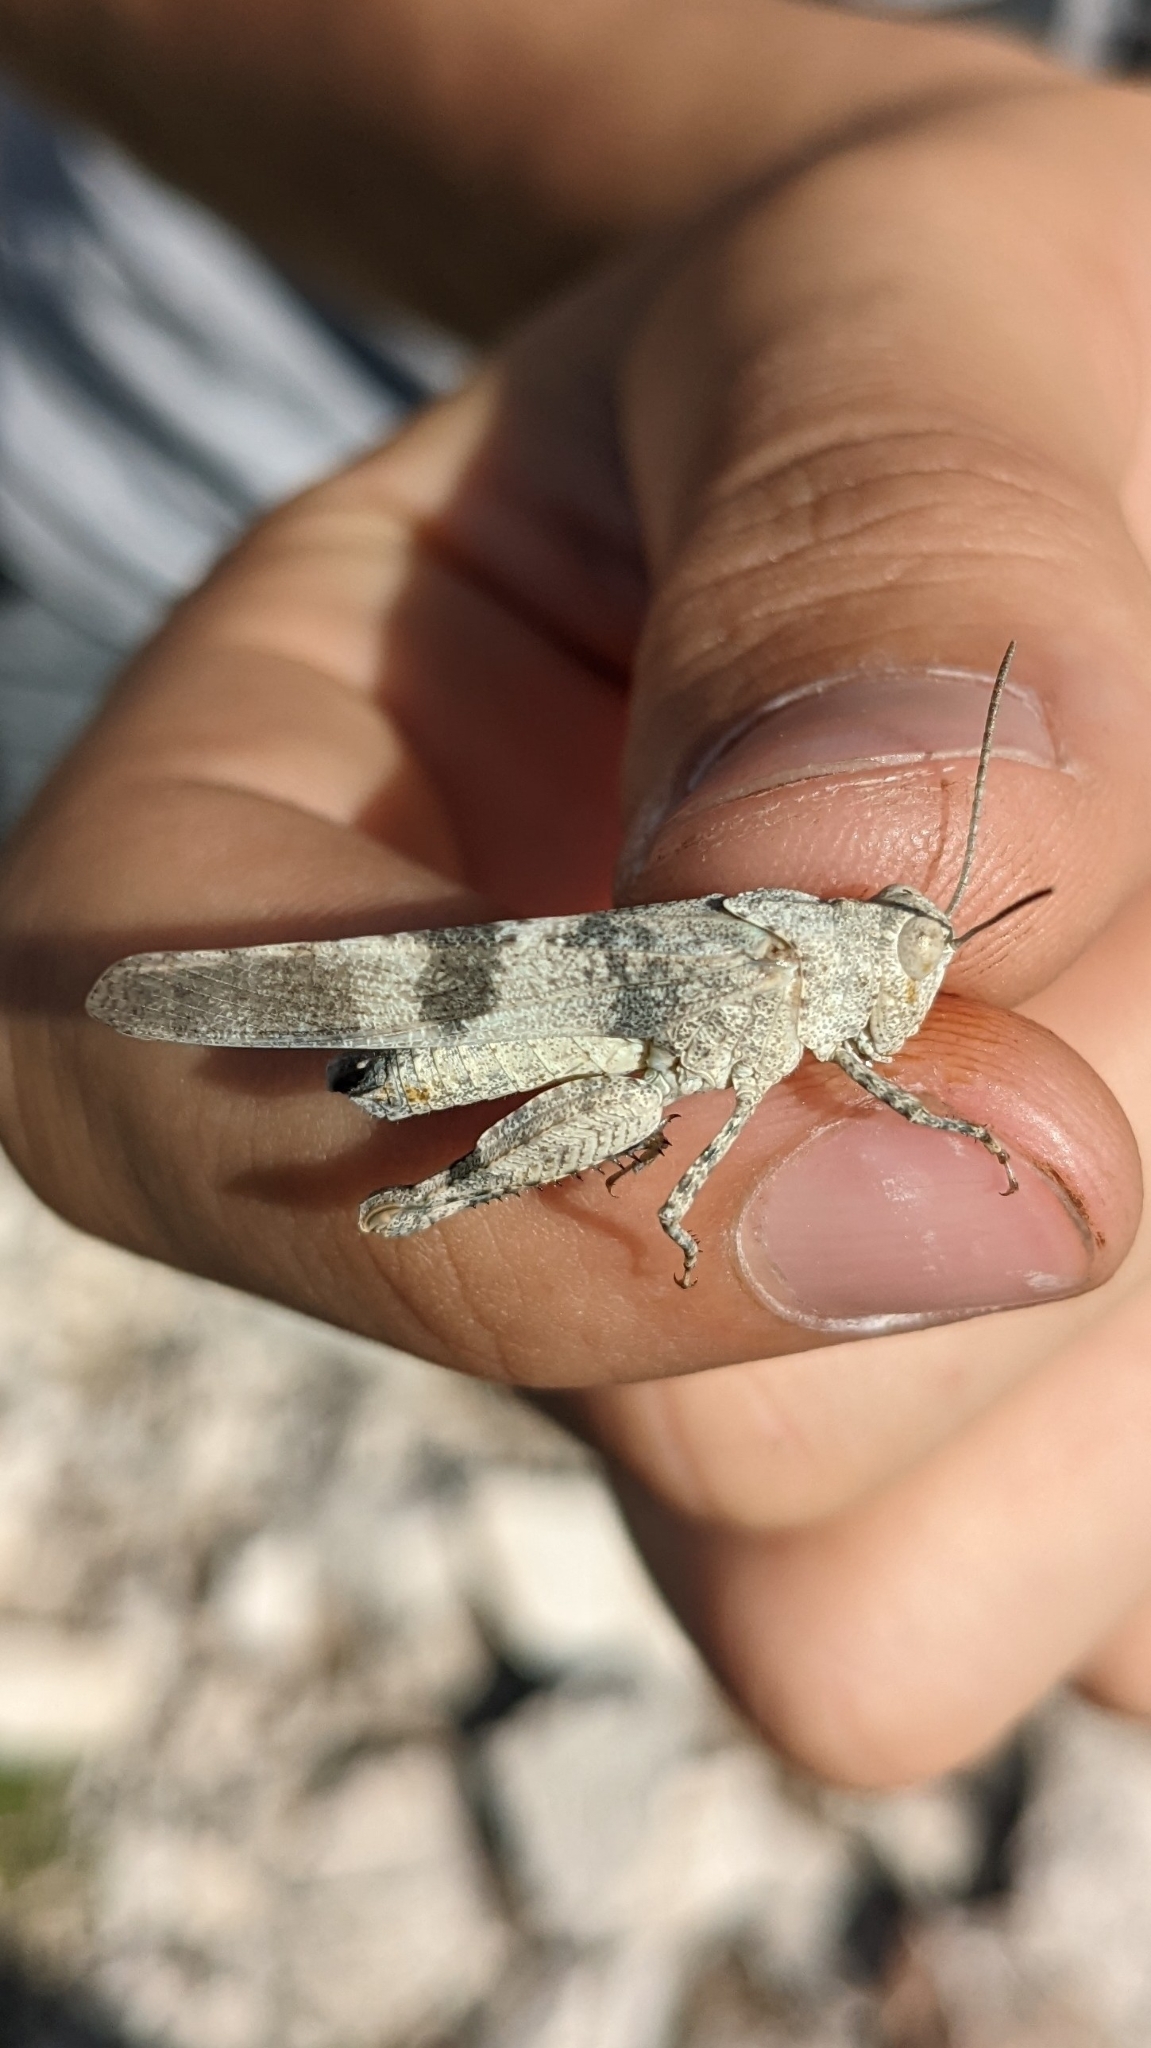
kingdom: Animalia
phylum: Arthropoda
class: Insecta
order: Orthoptera
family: Acrididae
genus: Oedipoda
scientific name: Oedipoda coerulea
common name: Iberian band-winged grasshopper
